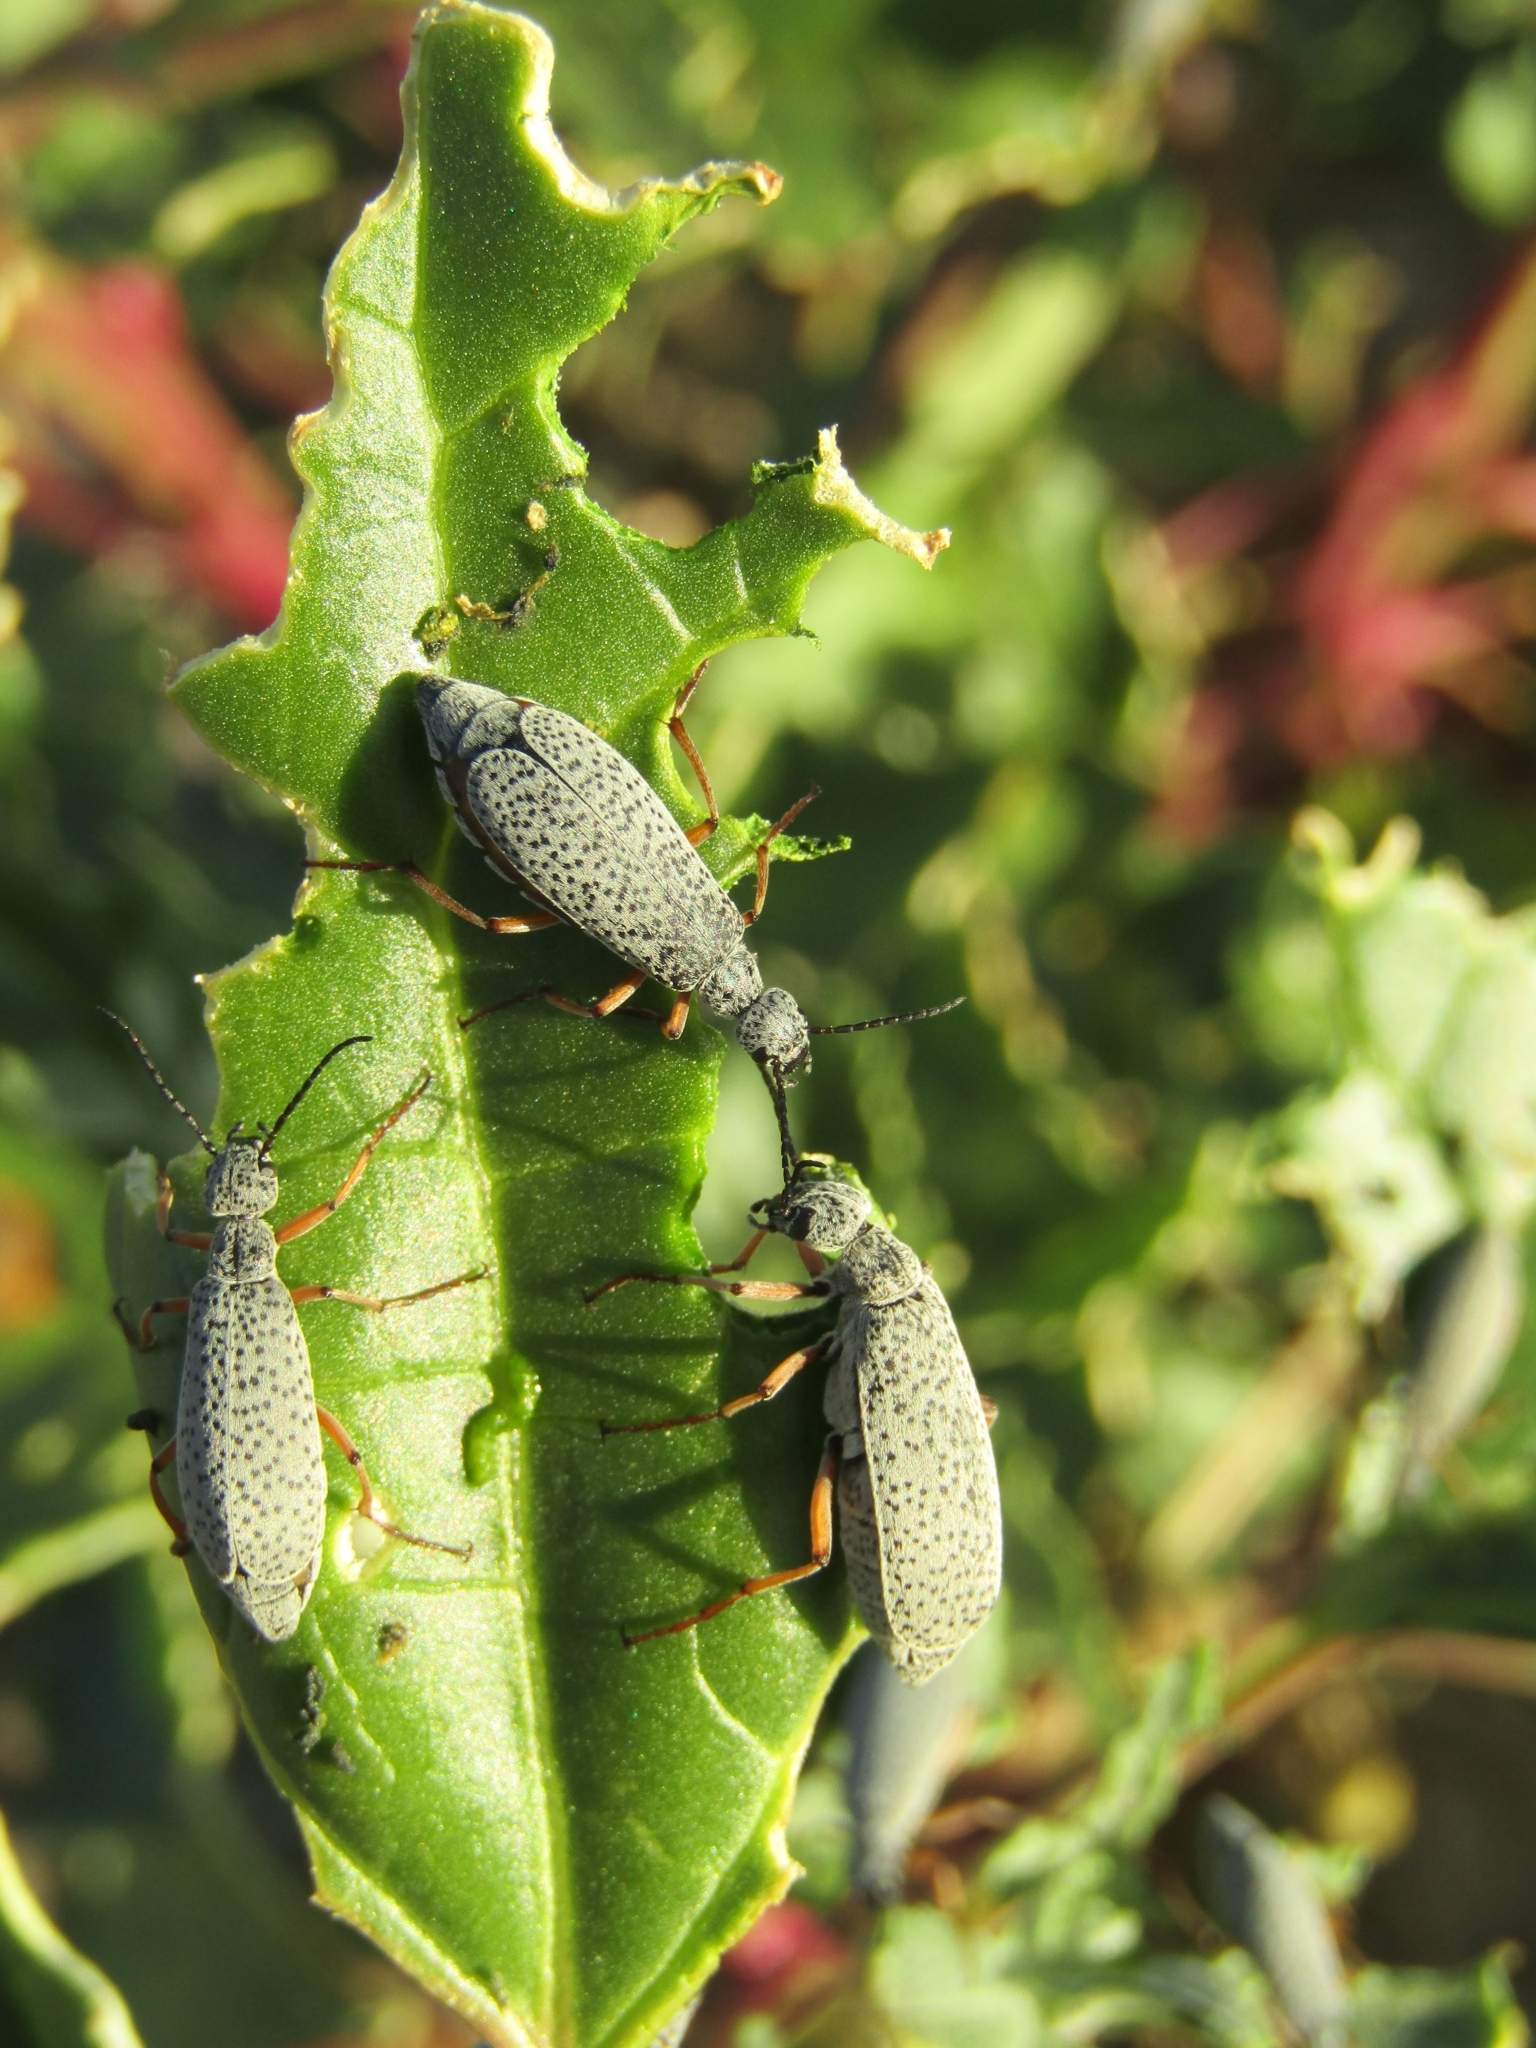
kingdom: Animalia
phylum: Arthropoda
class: Insecta
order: Coleoptera
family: Meloidae
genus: Epicauta
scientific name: Epicauta
